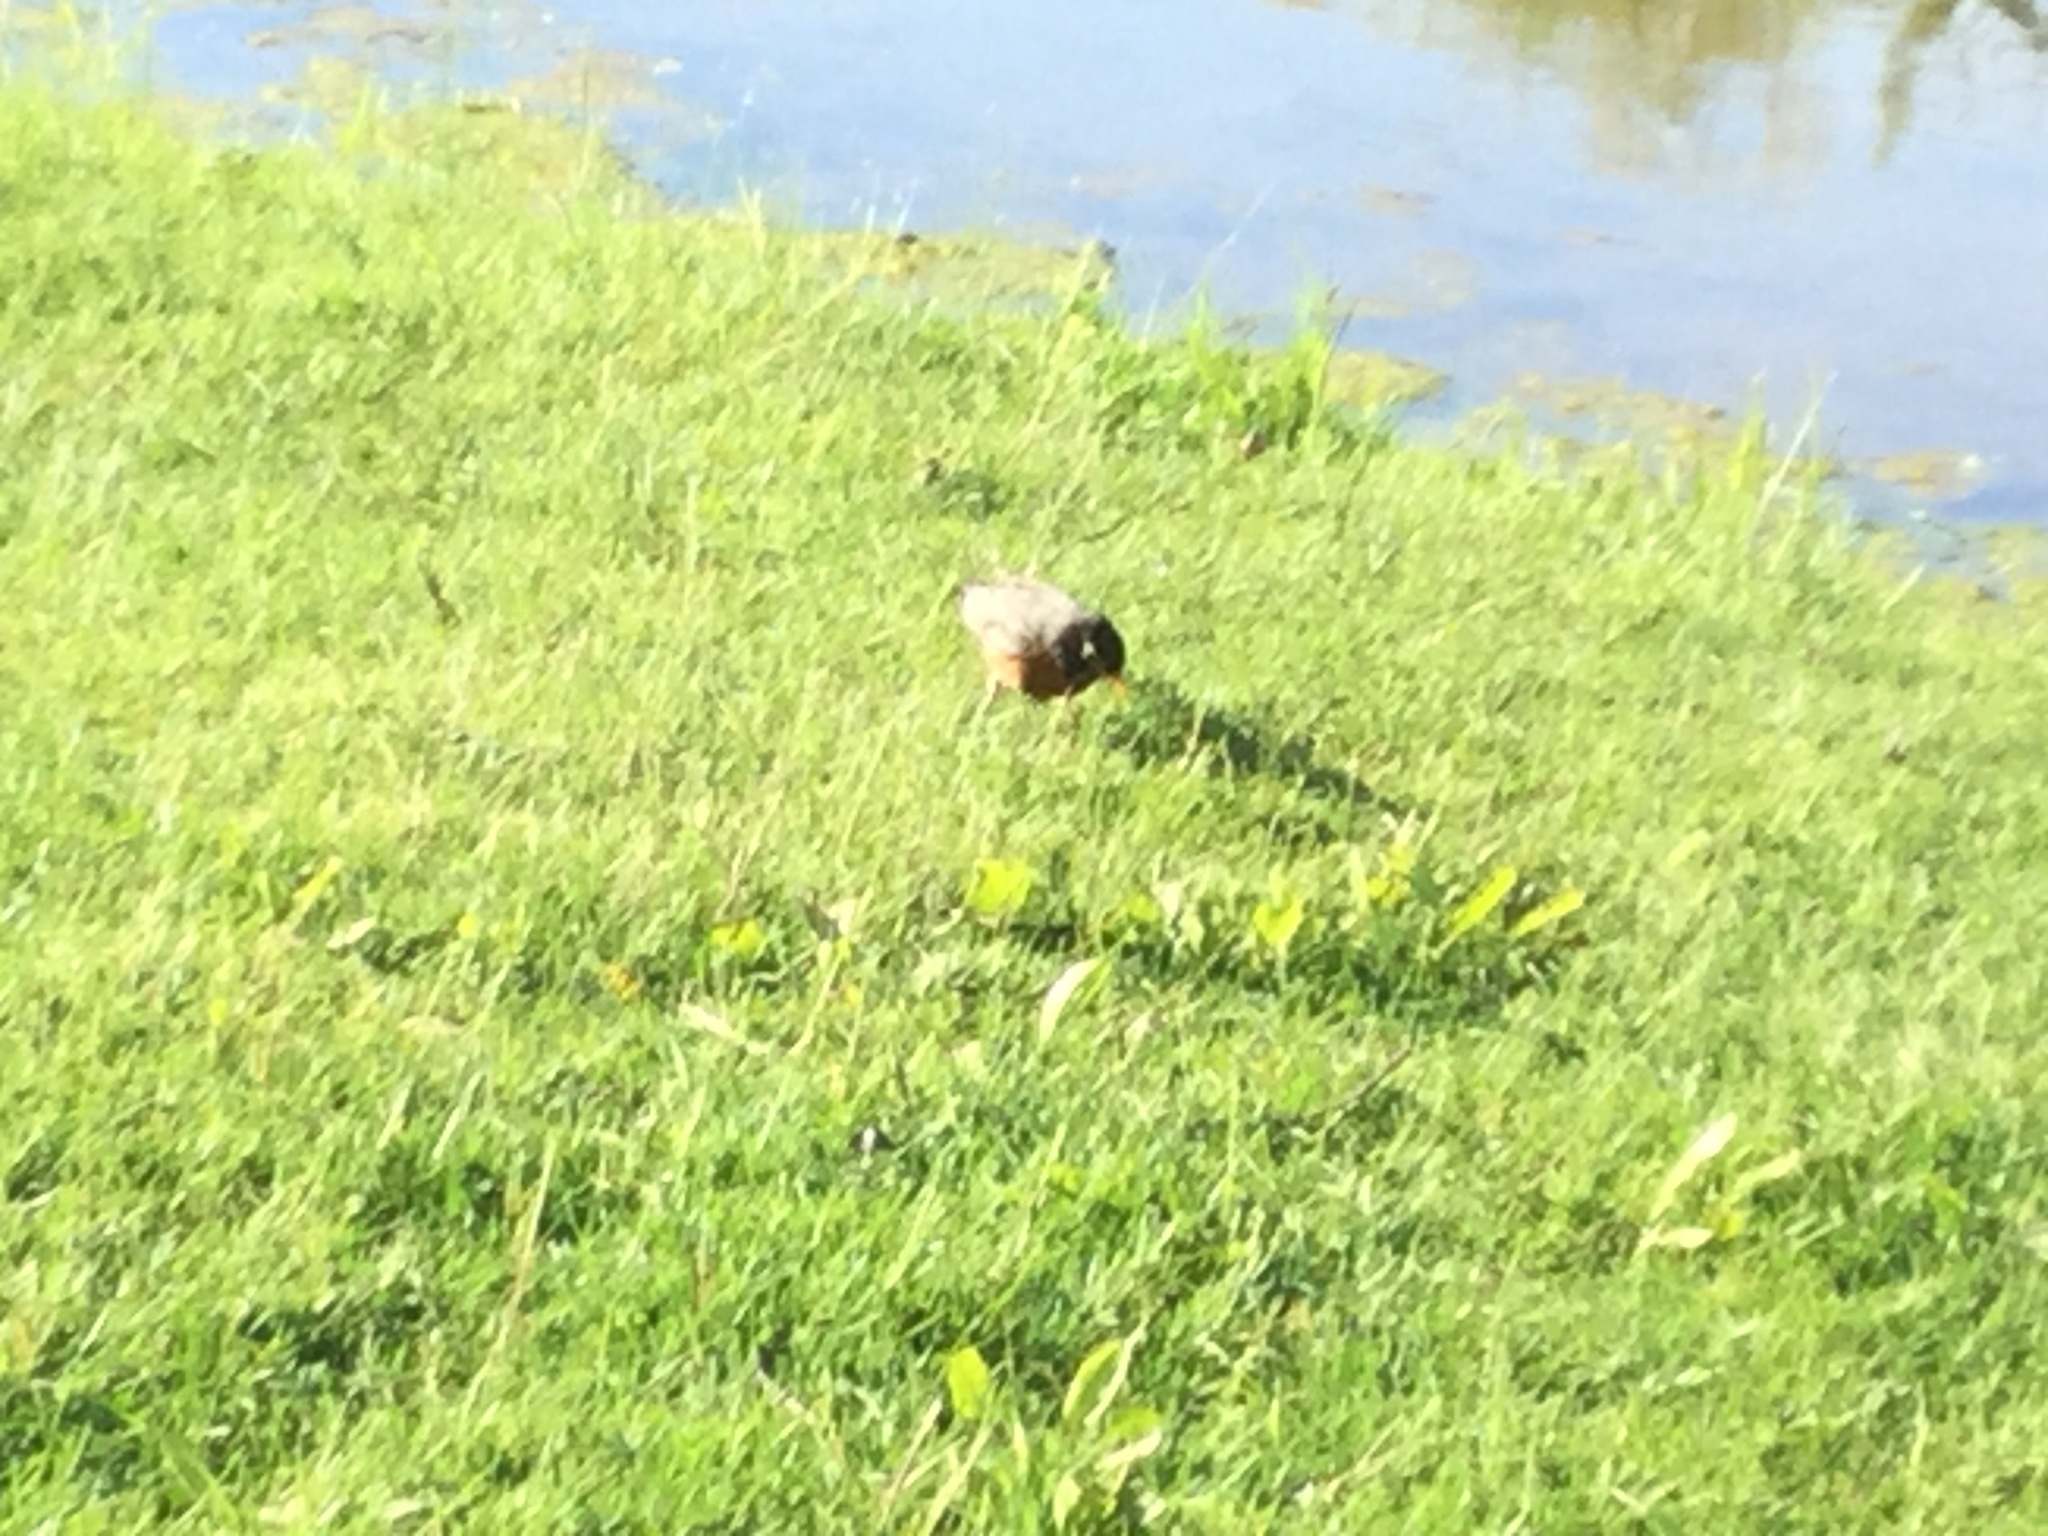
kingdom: Animalia
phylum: Chordata
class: Aves
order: Passeriformes
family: Turdidae
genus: Turdus
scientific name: Turdus migratorius
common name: American robin
